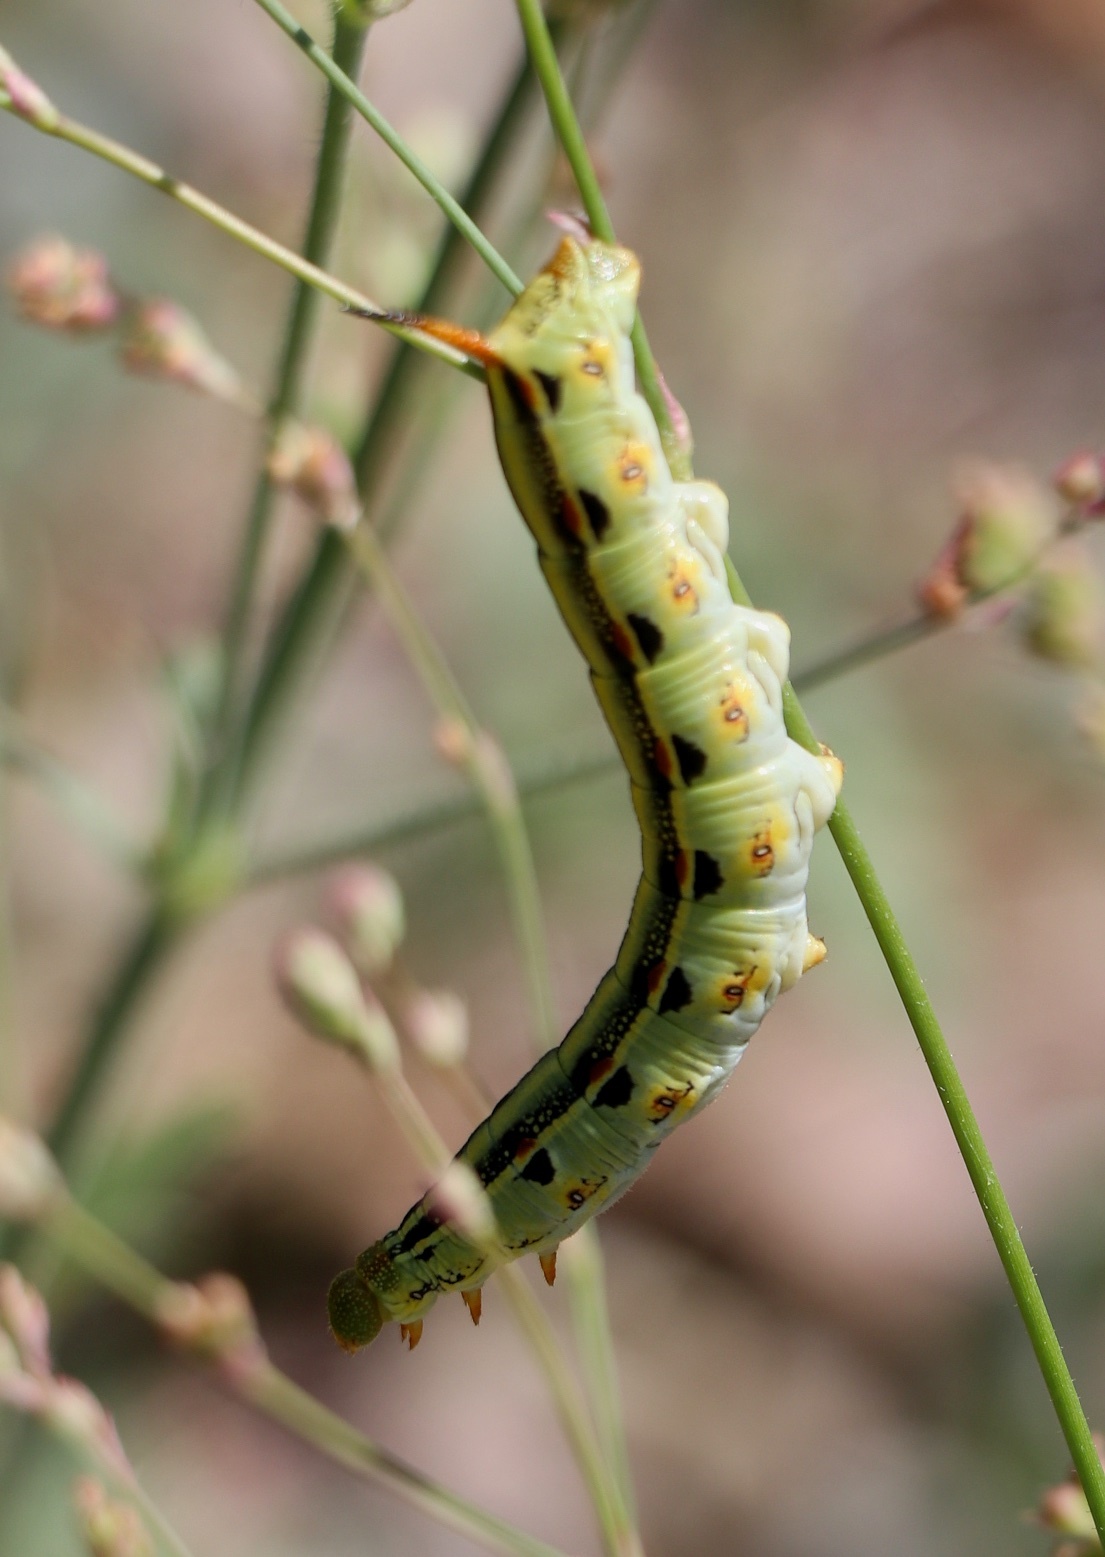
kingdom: Animalia
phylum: Arthropoda
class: Insecta
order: Lepidoptera
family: Sphingidae
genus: Hyles
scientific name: Hyles lineata
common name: White-lined sphinx
